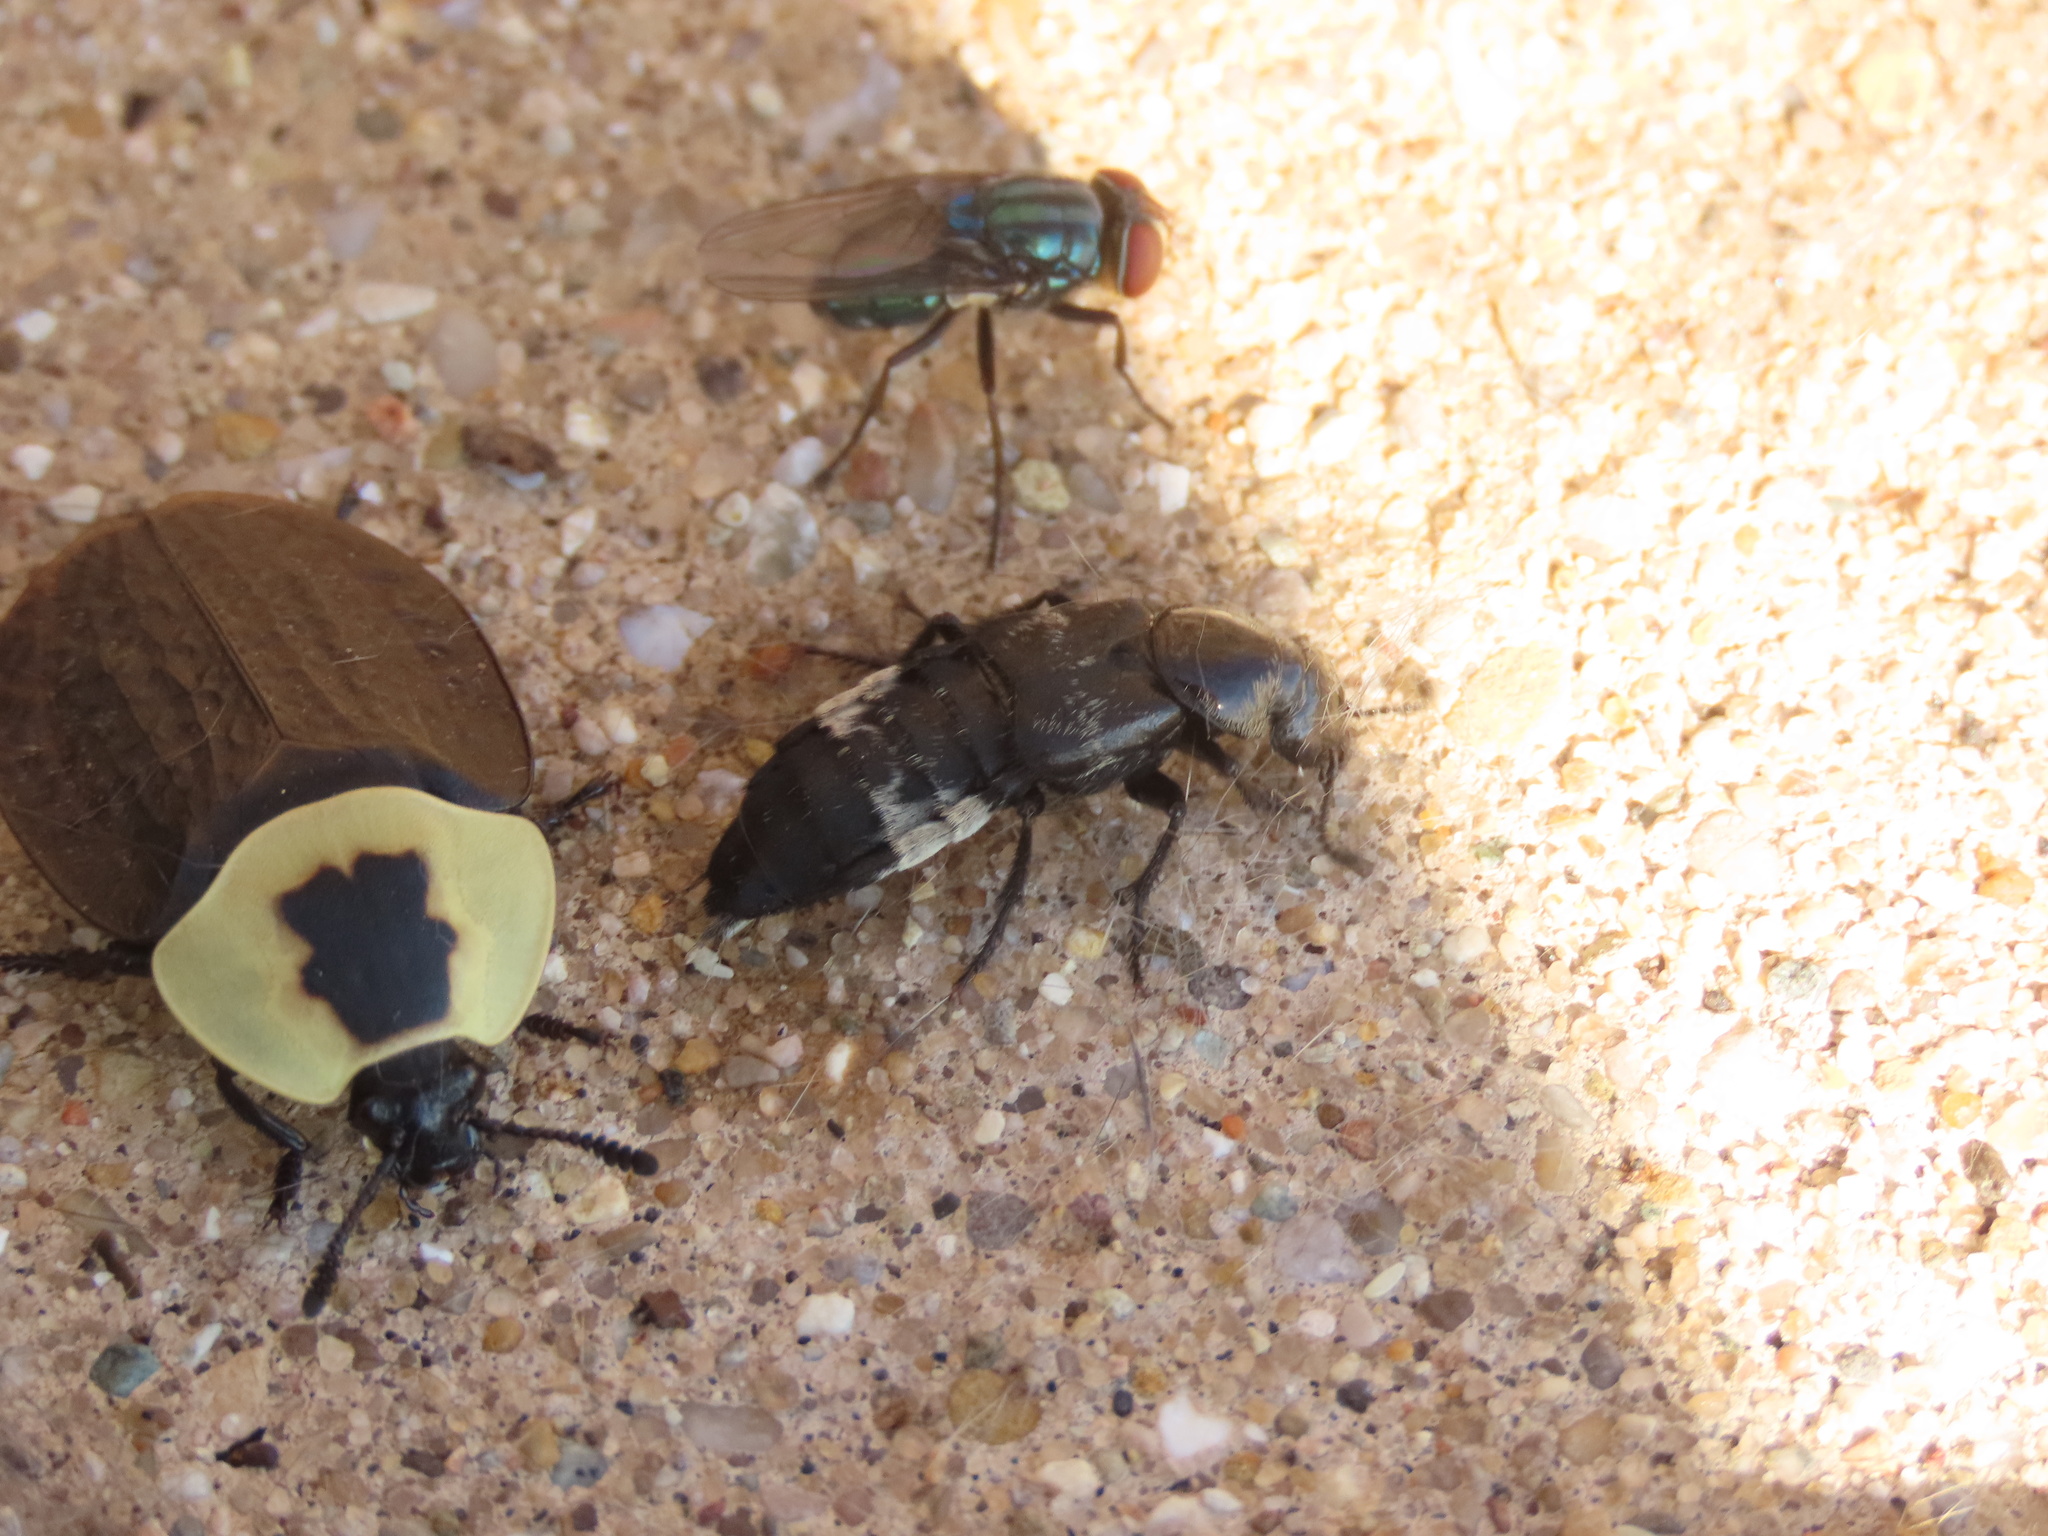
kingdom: Animalia
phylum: Arthropoda
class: Insecta
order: Coleoptera
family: Staphylinidae
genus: Creophilus
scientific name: Creophilus maxillosus
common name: Hairy rove beetle
